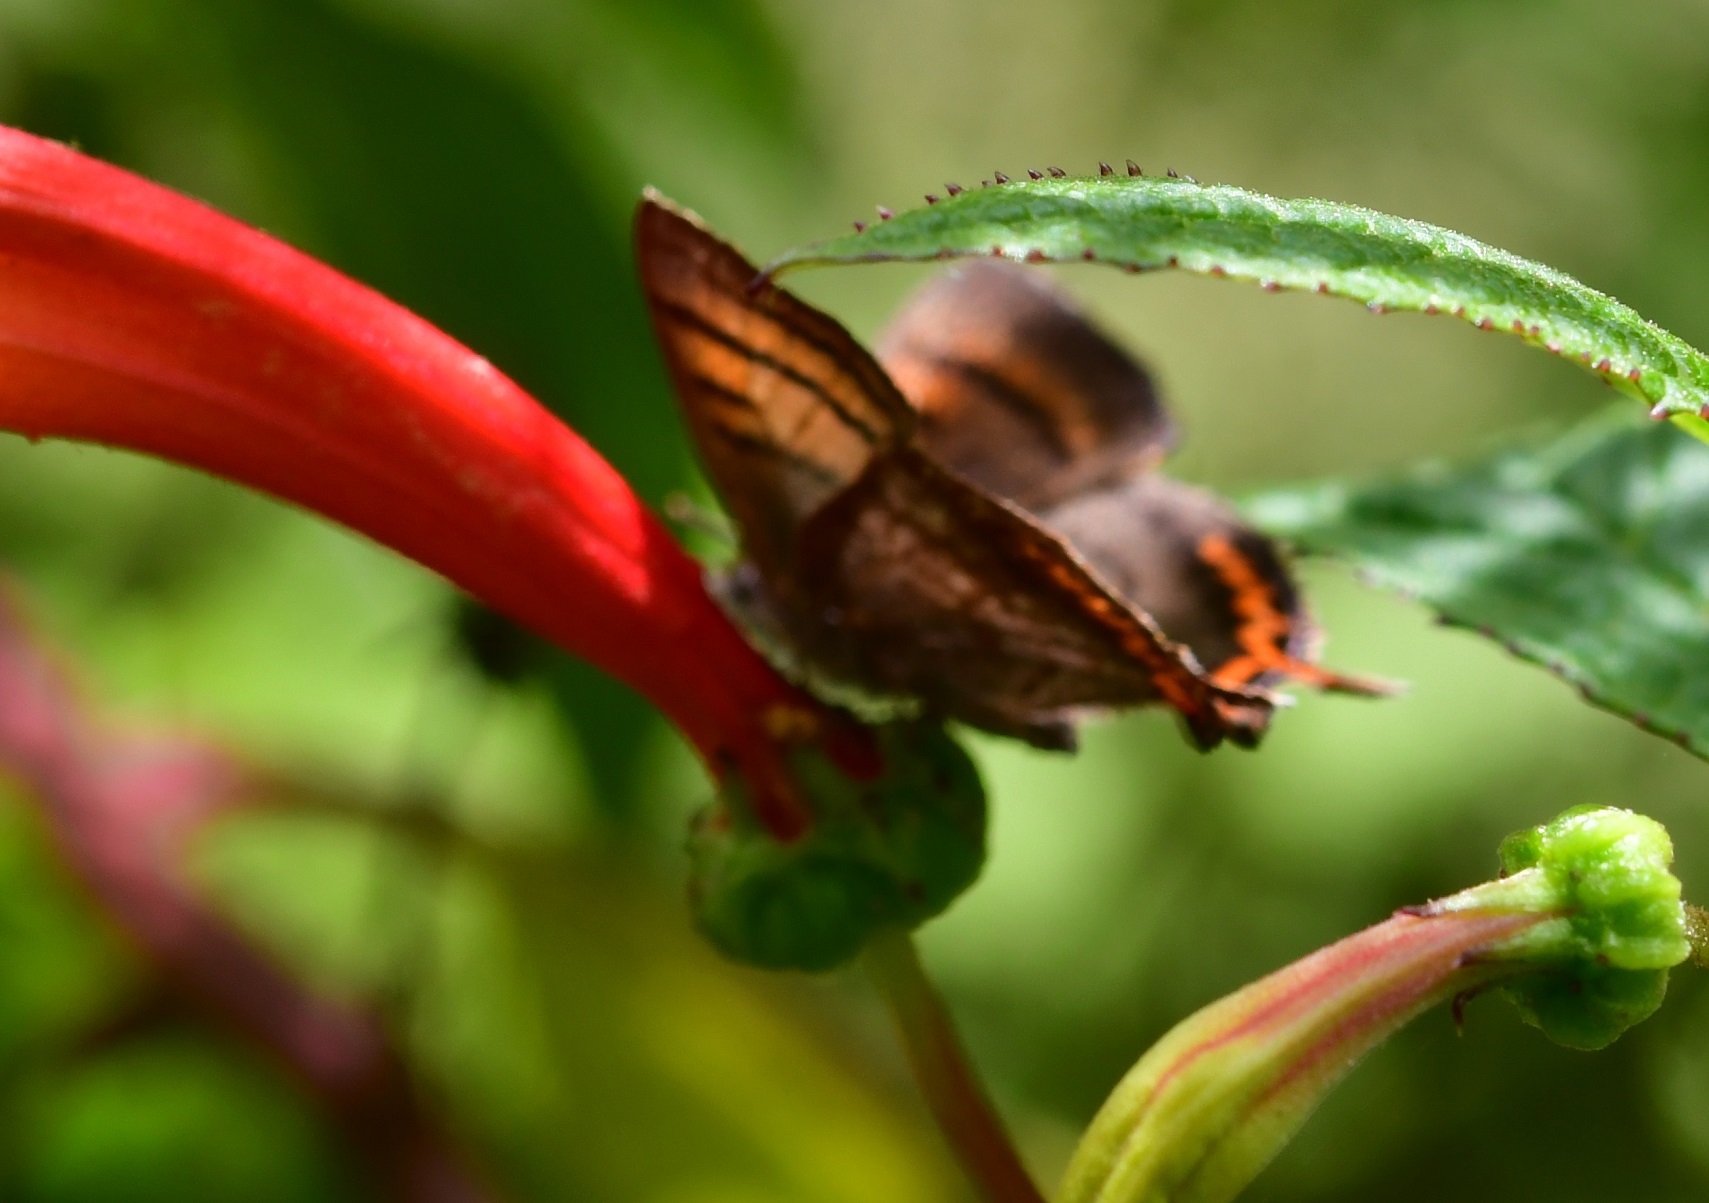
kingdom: Animalia
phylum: Arthropoda
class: Insecta
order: Lepidoptera
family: Lycaenidae
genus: Iophanus
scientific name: Iophanus pyrrhias
